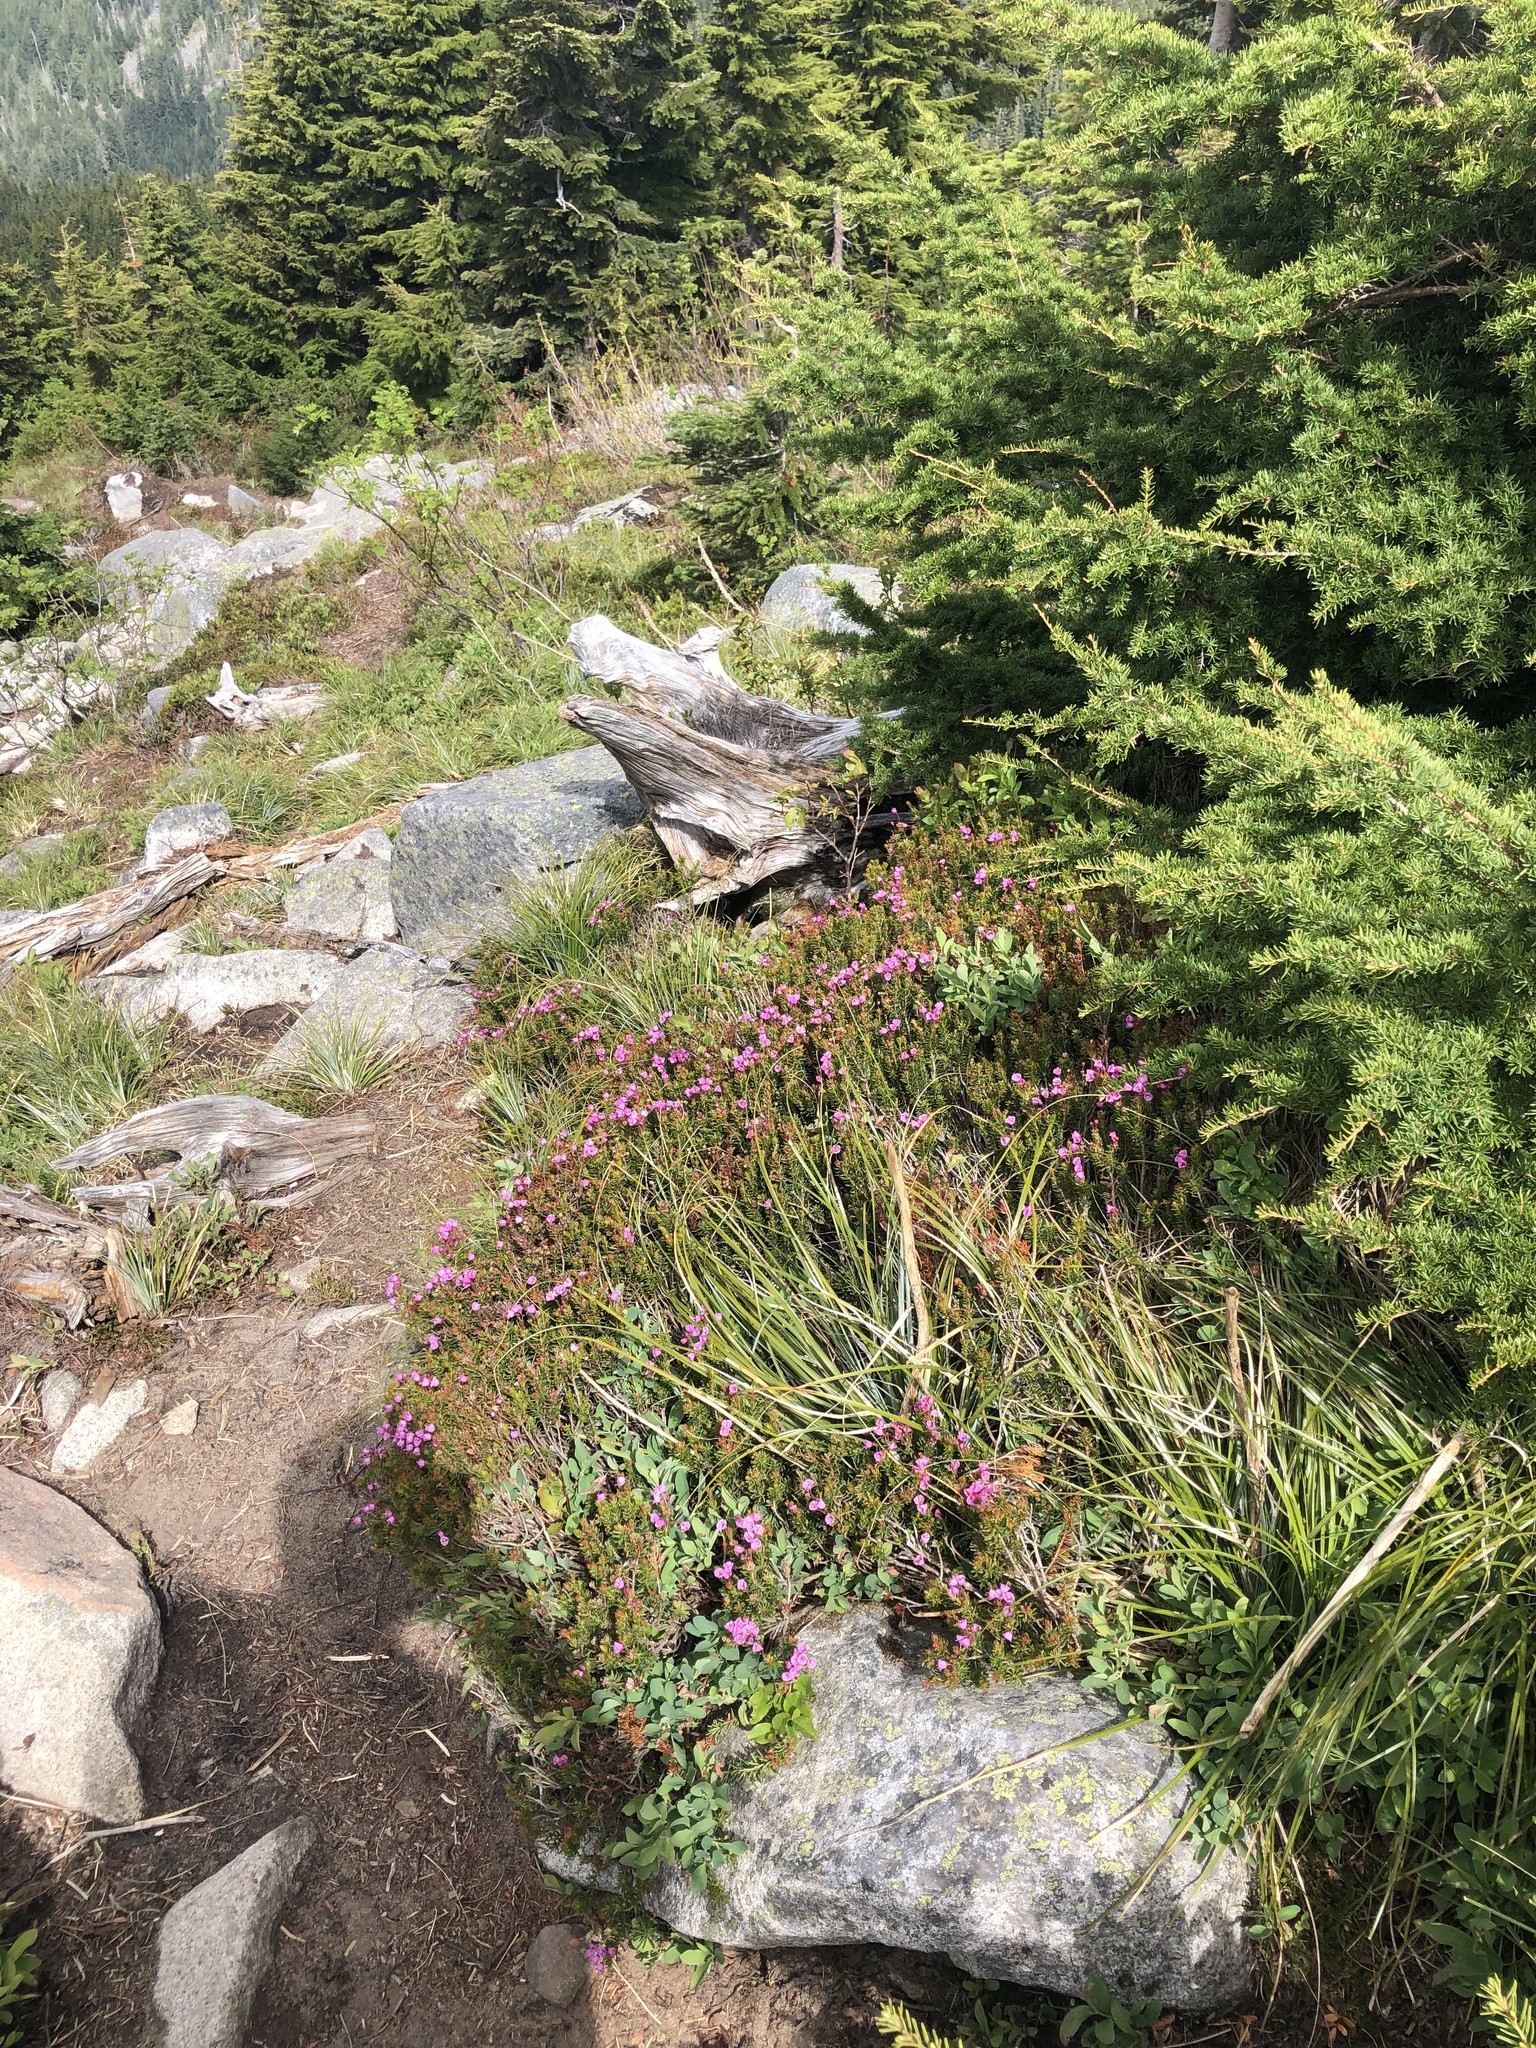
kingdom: Plantae
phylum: Tracheophyta
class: Magnoliopsida
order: Ericales
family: Ericaceae
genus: Phyllodoce
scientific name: Phyllodoce empetriformis
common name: Pink mountain heather
